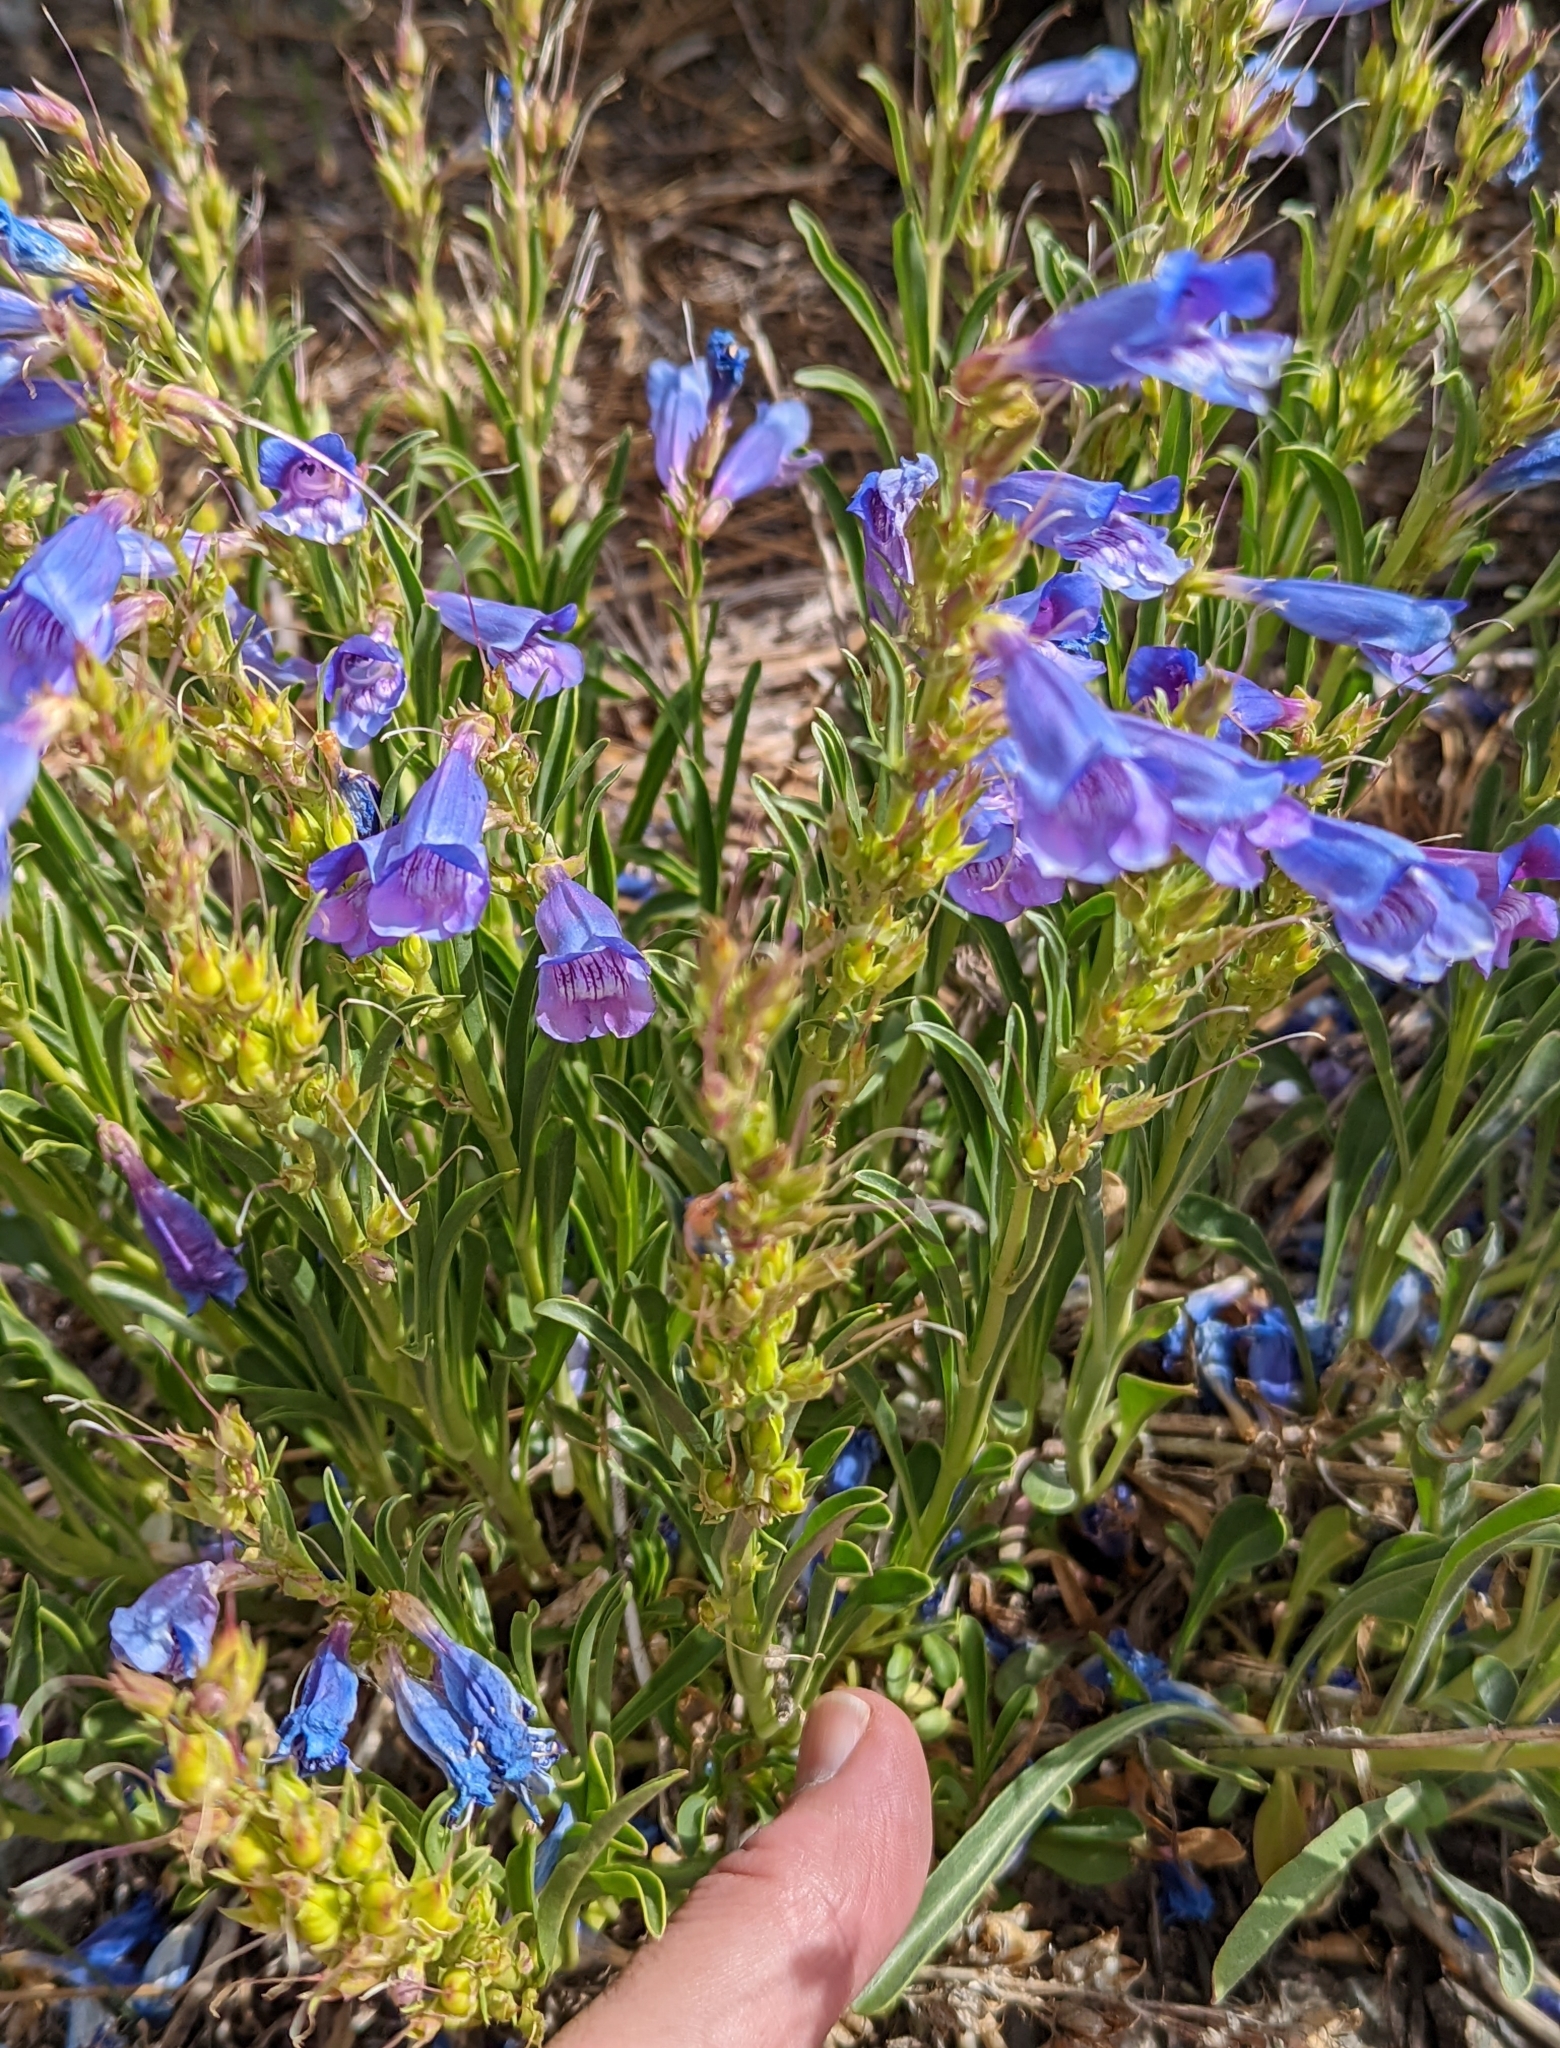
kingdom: Plantae
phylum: Tracheophyta
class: Magnoliopsida
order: Lamiales
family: Plantaginaceae
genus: Penstemon
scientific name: Penstemon speciosus
